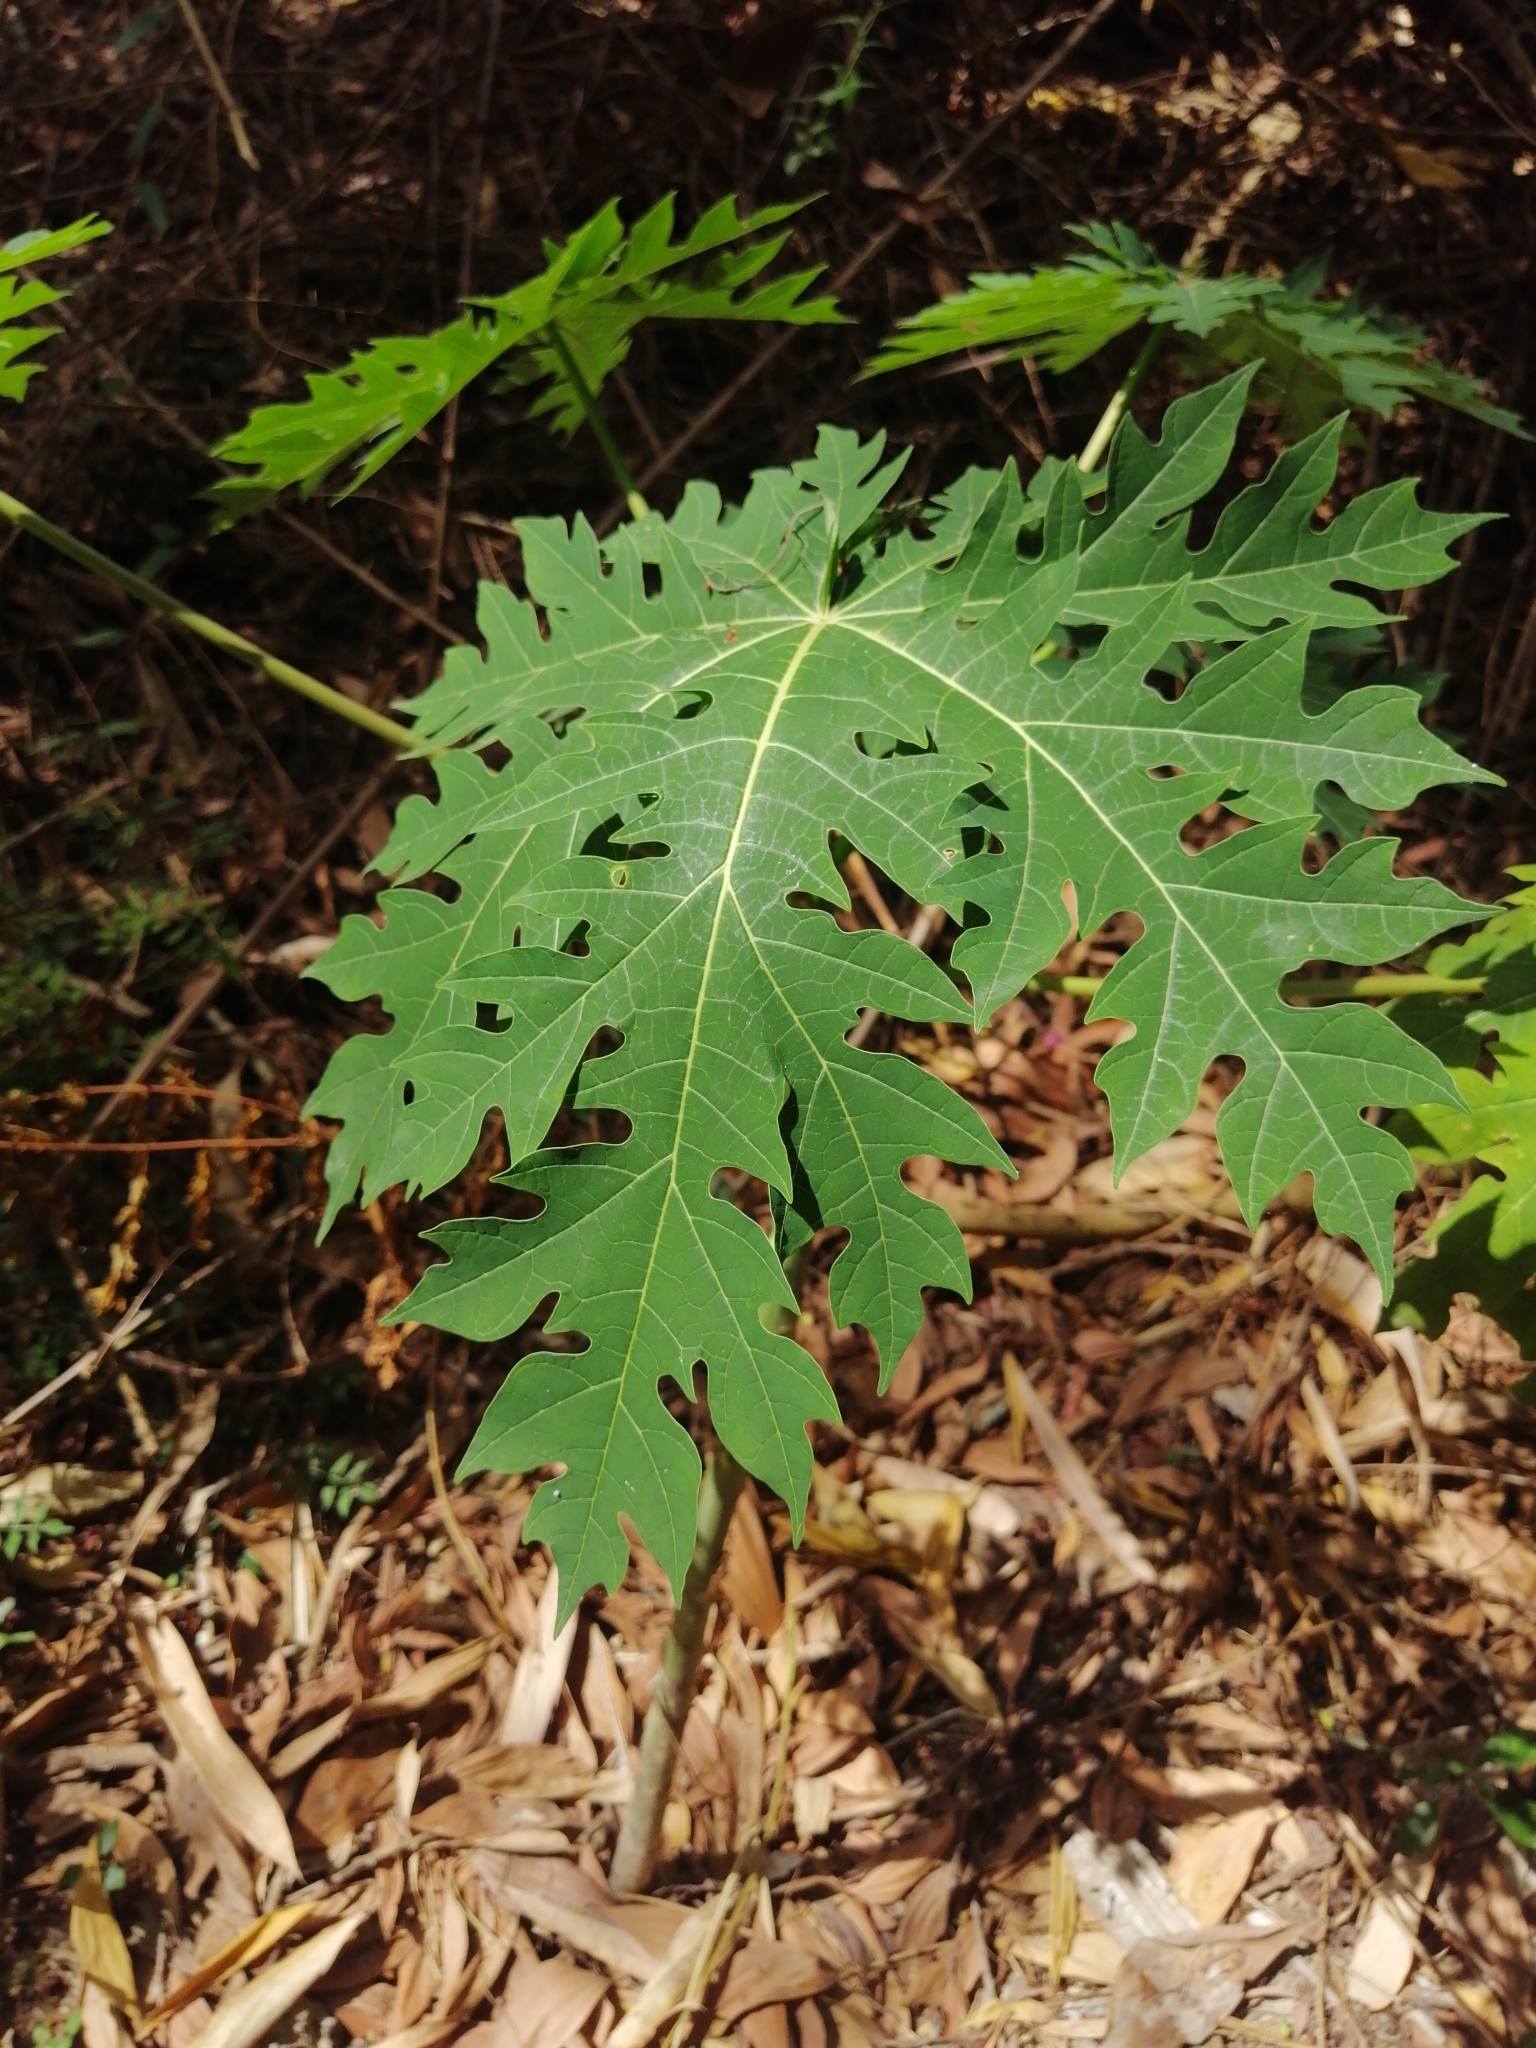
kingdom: Plantae
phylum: Tracheophyta
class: Magnoliopsida
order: Brassicales
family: Caricaceae
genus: Carica
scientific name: Carica papaya
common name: Papaya
